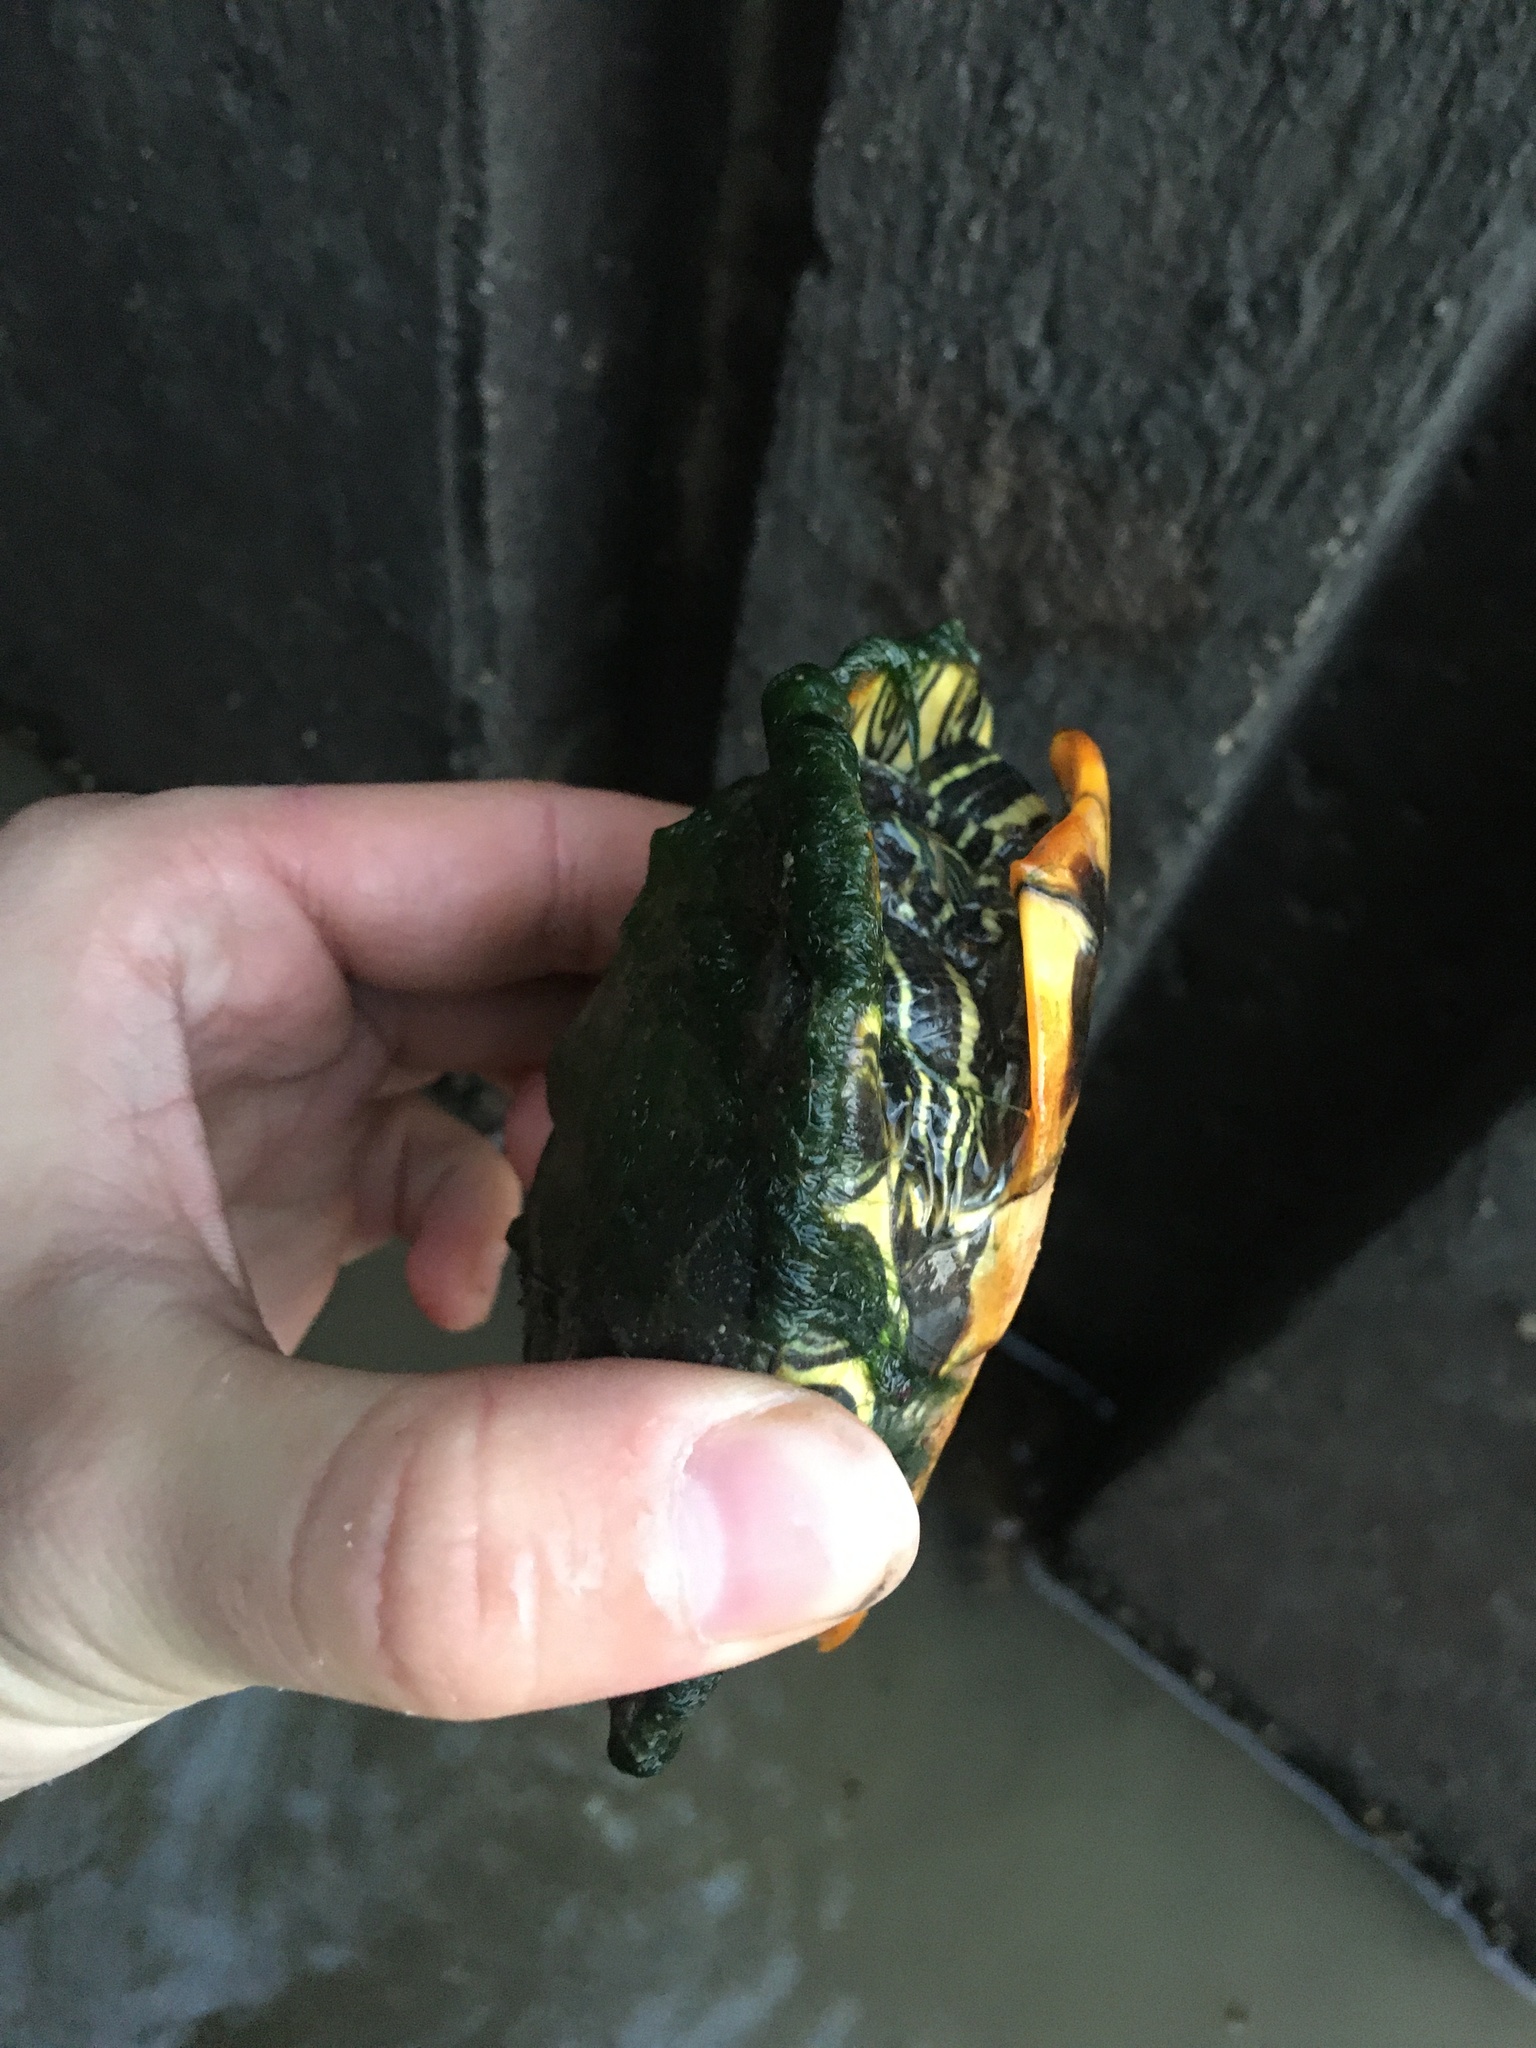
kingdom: Animalia
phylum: Chordata
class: Testudines
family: Emydidae
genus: Trachemys
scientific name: Trachemys scripta
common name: Slider
